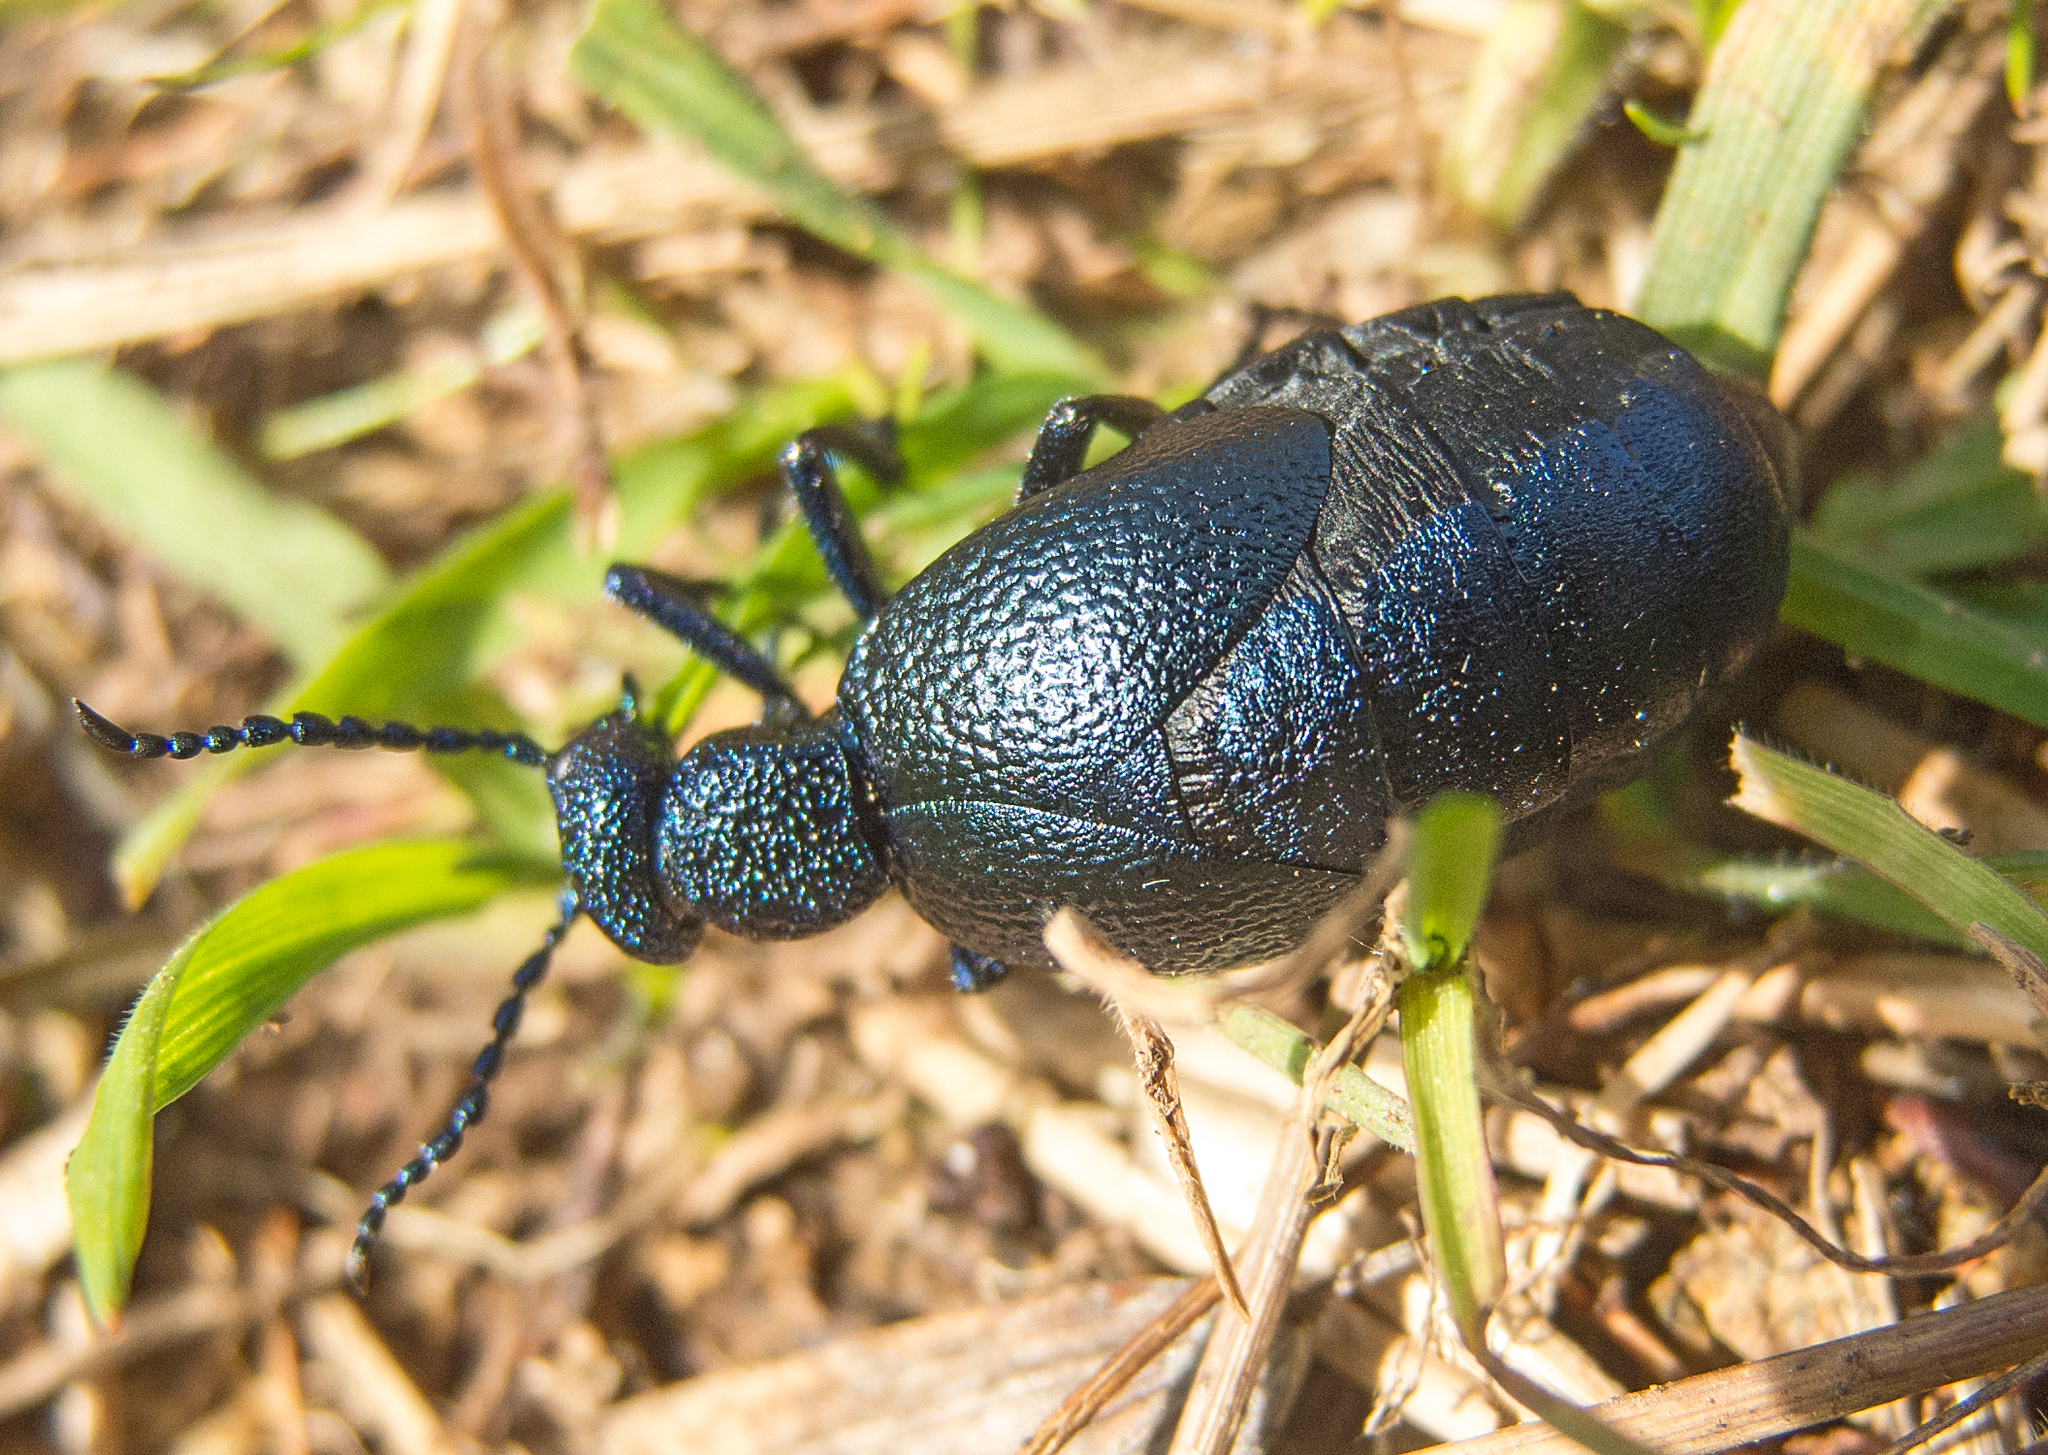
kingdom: Animalia
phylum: Arthropoda
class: Insecta
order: Coleoptera
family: Meloidae
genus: Meloe
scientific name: Meloe proscarabaeus
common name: Black oil-beetle
